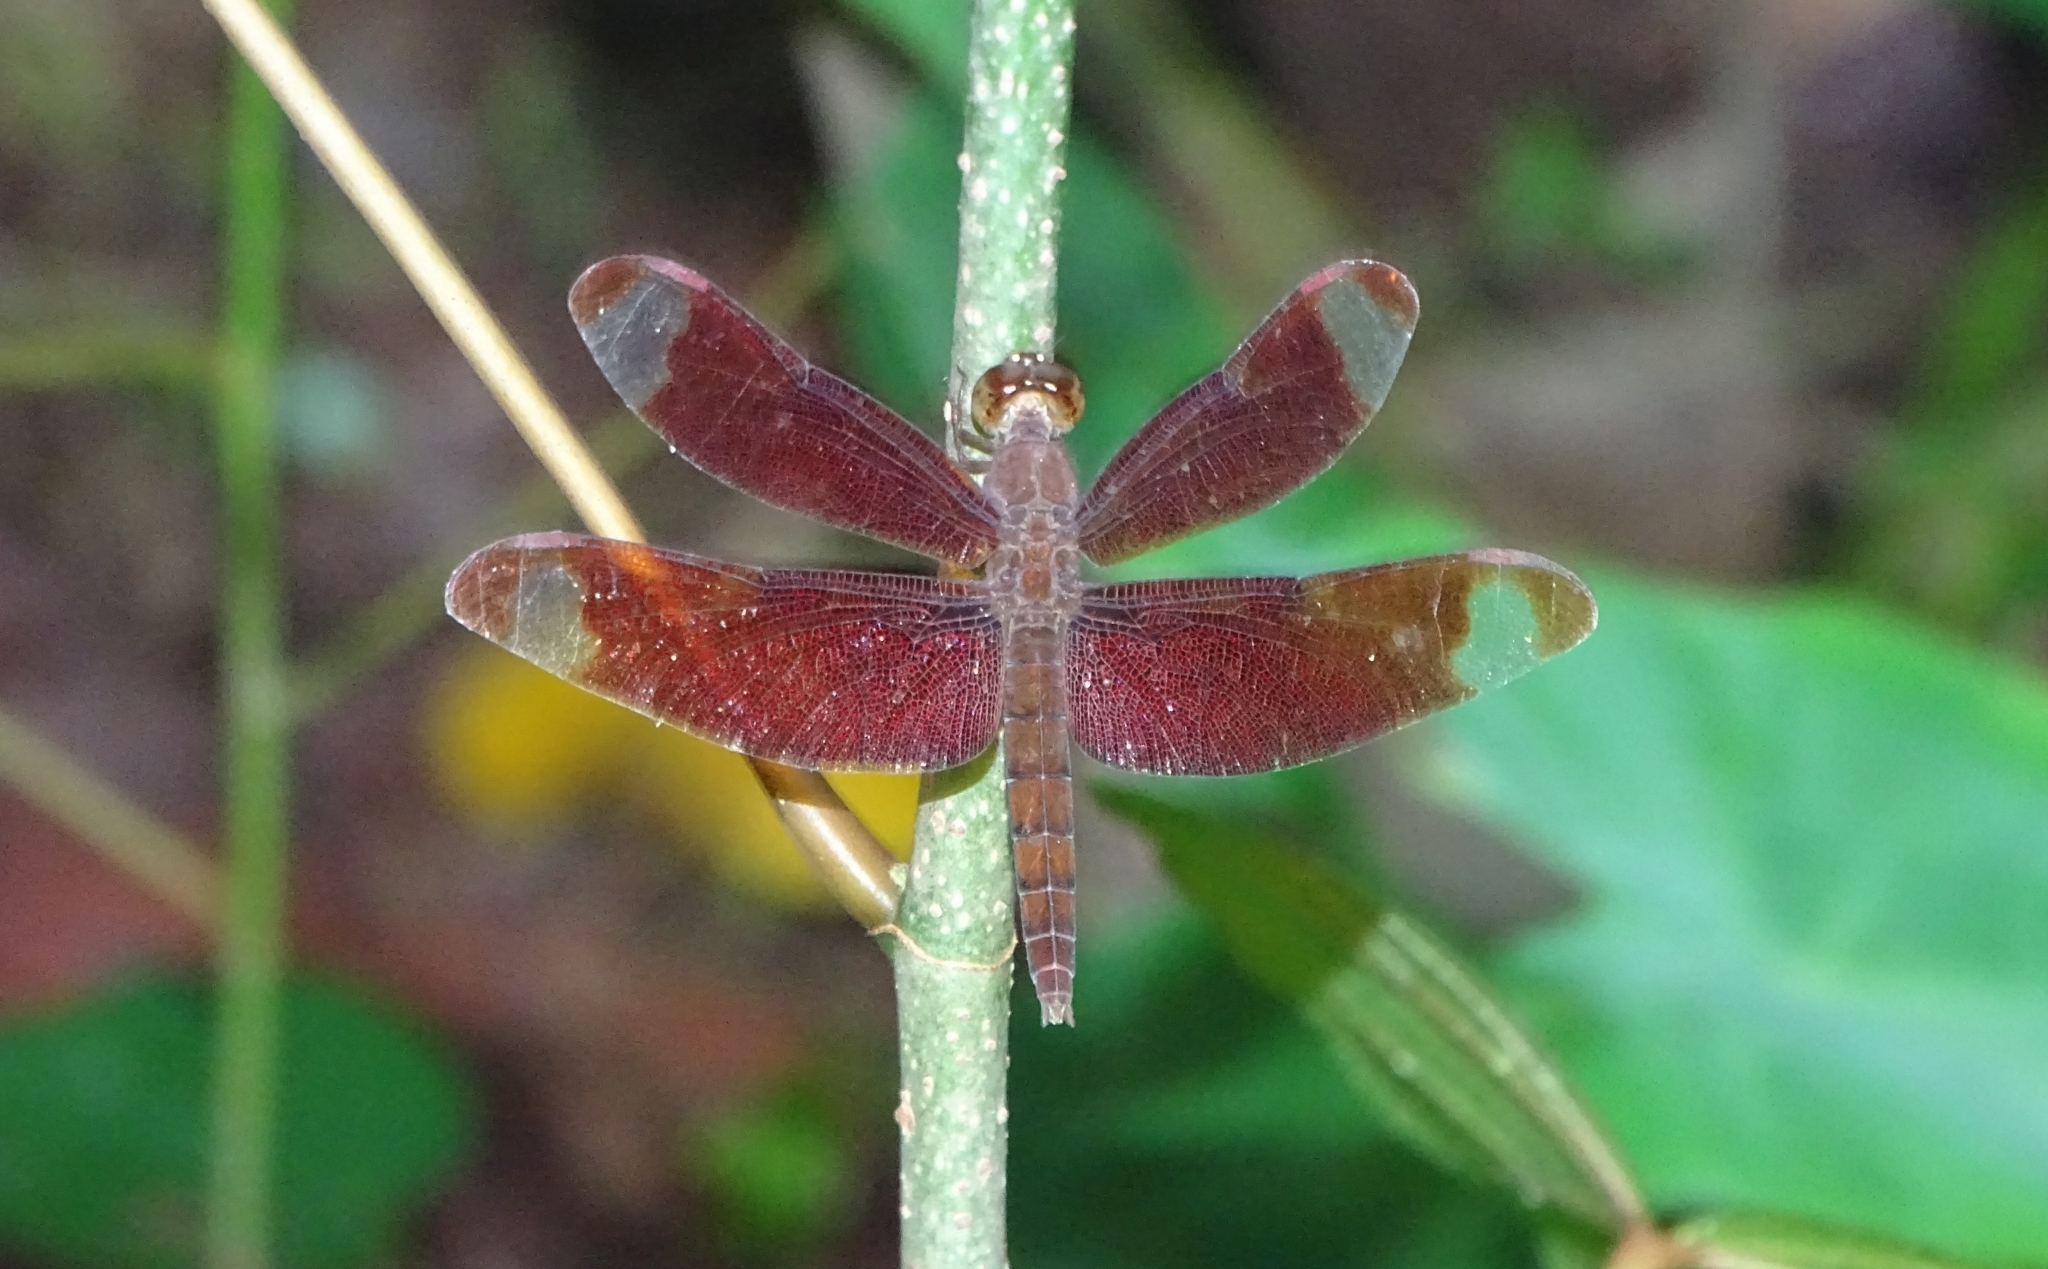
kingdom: Animalia
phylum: Arthropoda
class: Insecta
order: Odonata
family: Libellulidae
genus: Neurothemis
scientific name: Neurothemis fulvia
